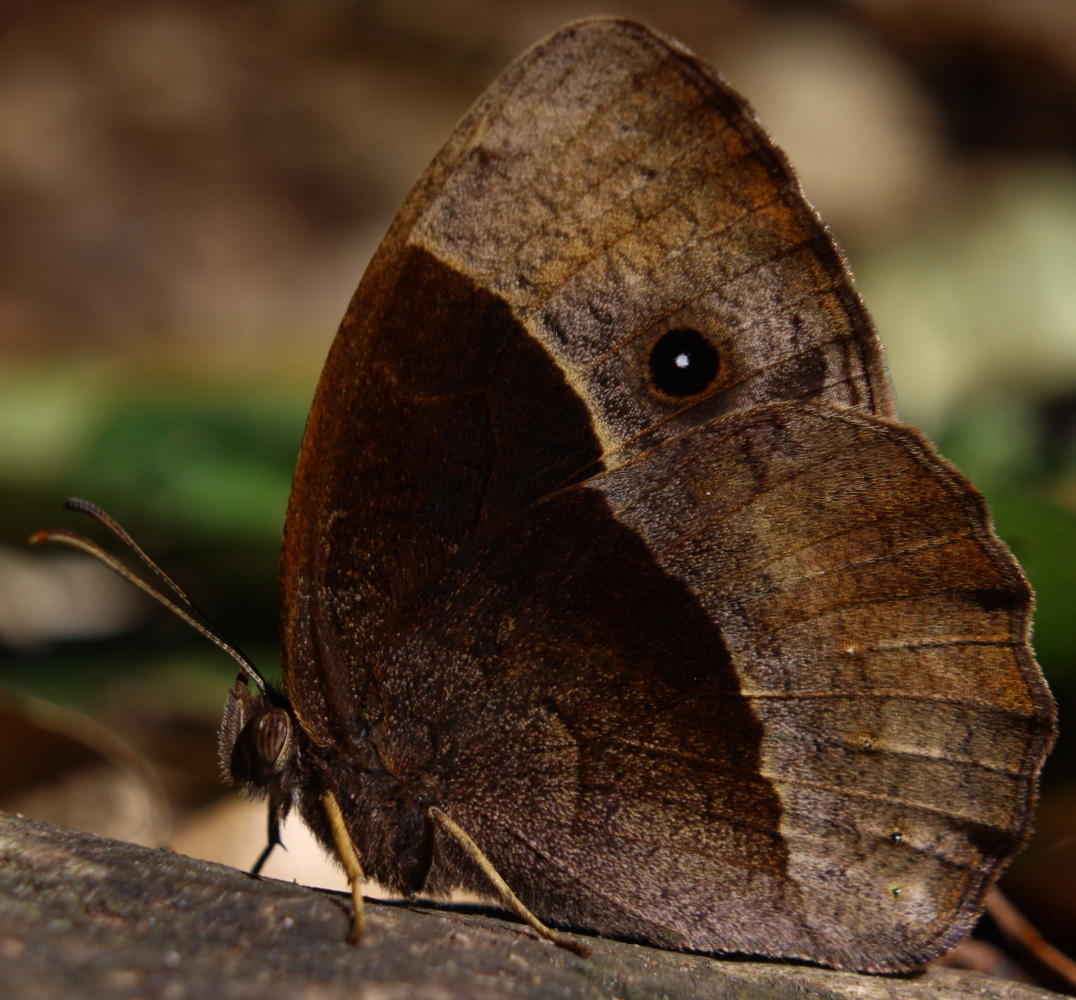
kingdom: Animalia
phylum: Arthropoda
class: Insecta
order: Lepidoptera
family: Nymphalidae
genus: Mycalesis
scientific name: Mycalesis rhacotis
